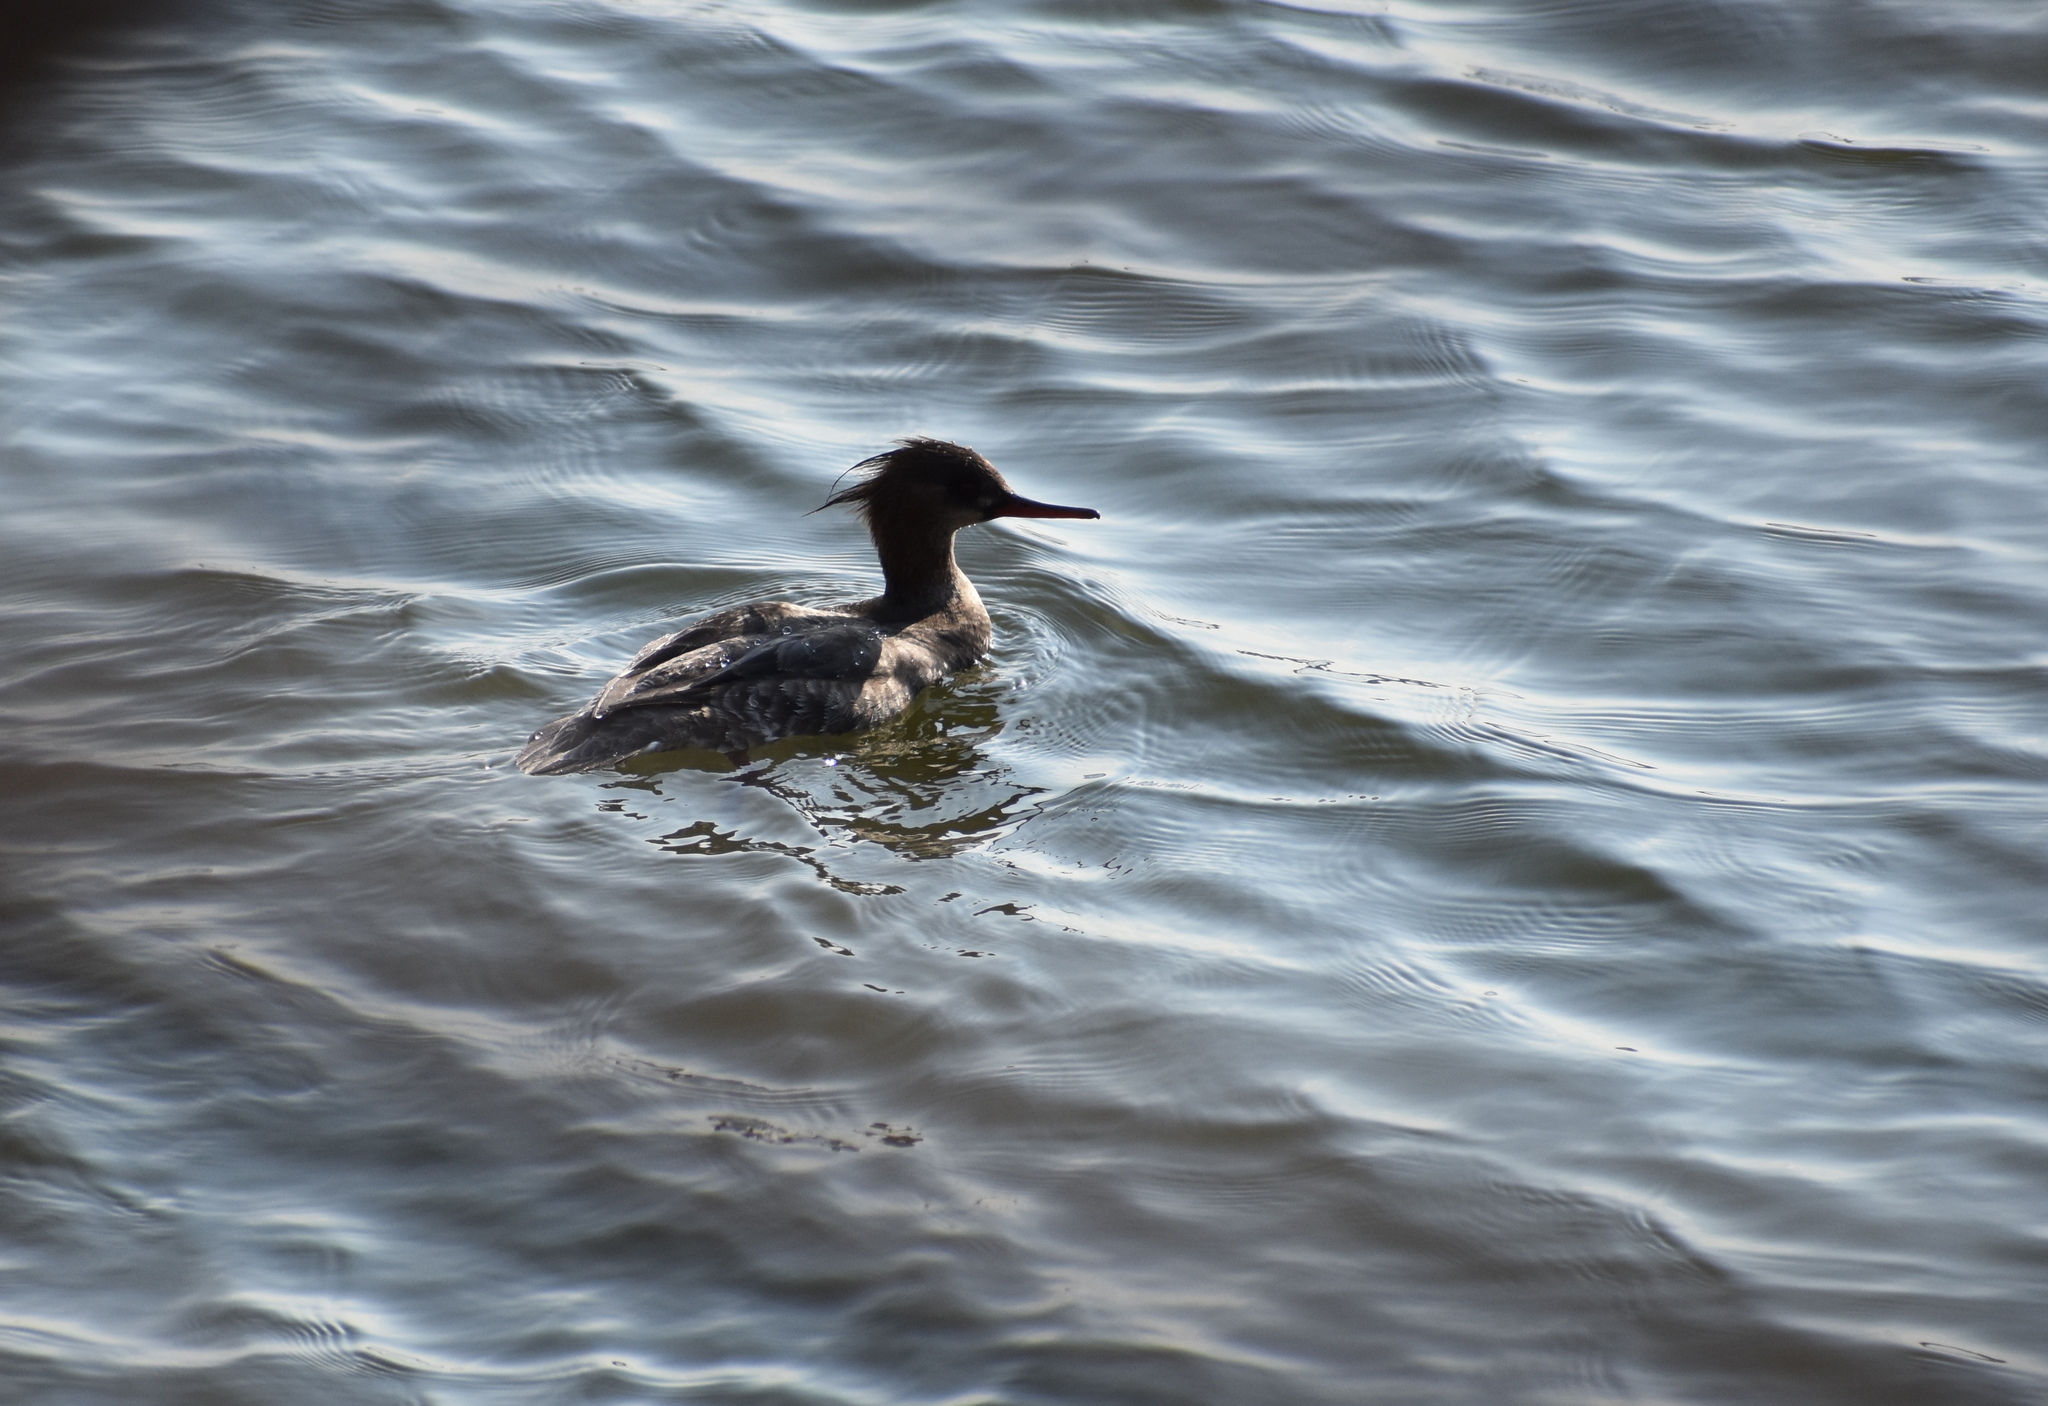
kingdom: Animalia
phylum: Chordata
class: Aves
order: Anseriformes
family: Anatidae
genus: Mergus
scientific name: Mergus serrator
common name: Red-breasted merganser
